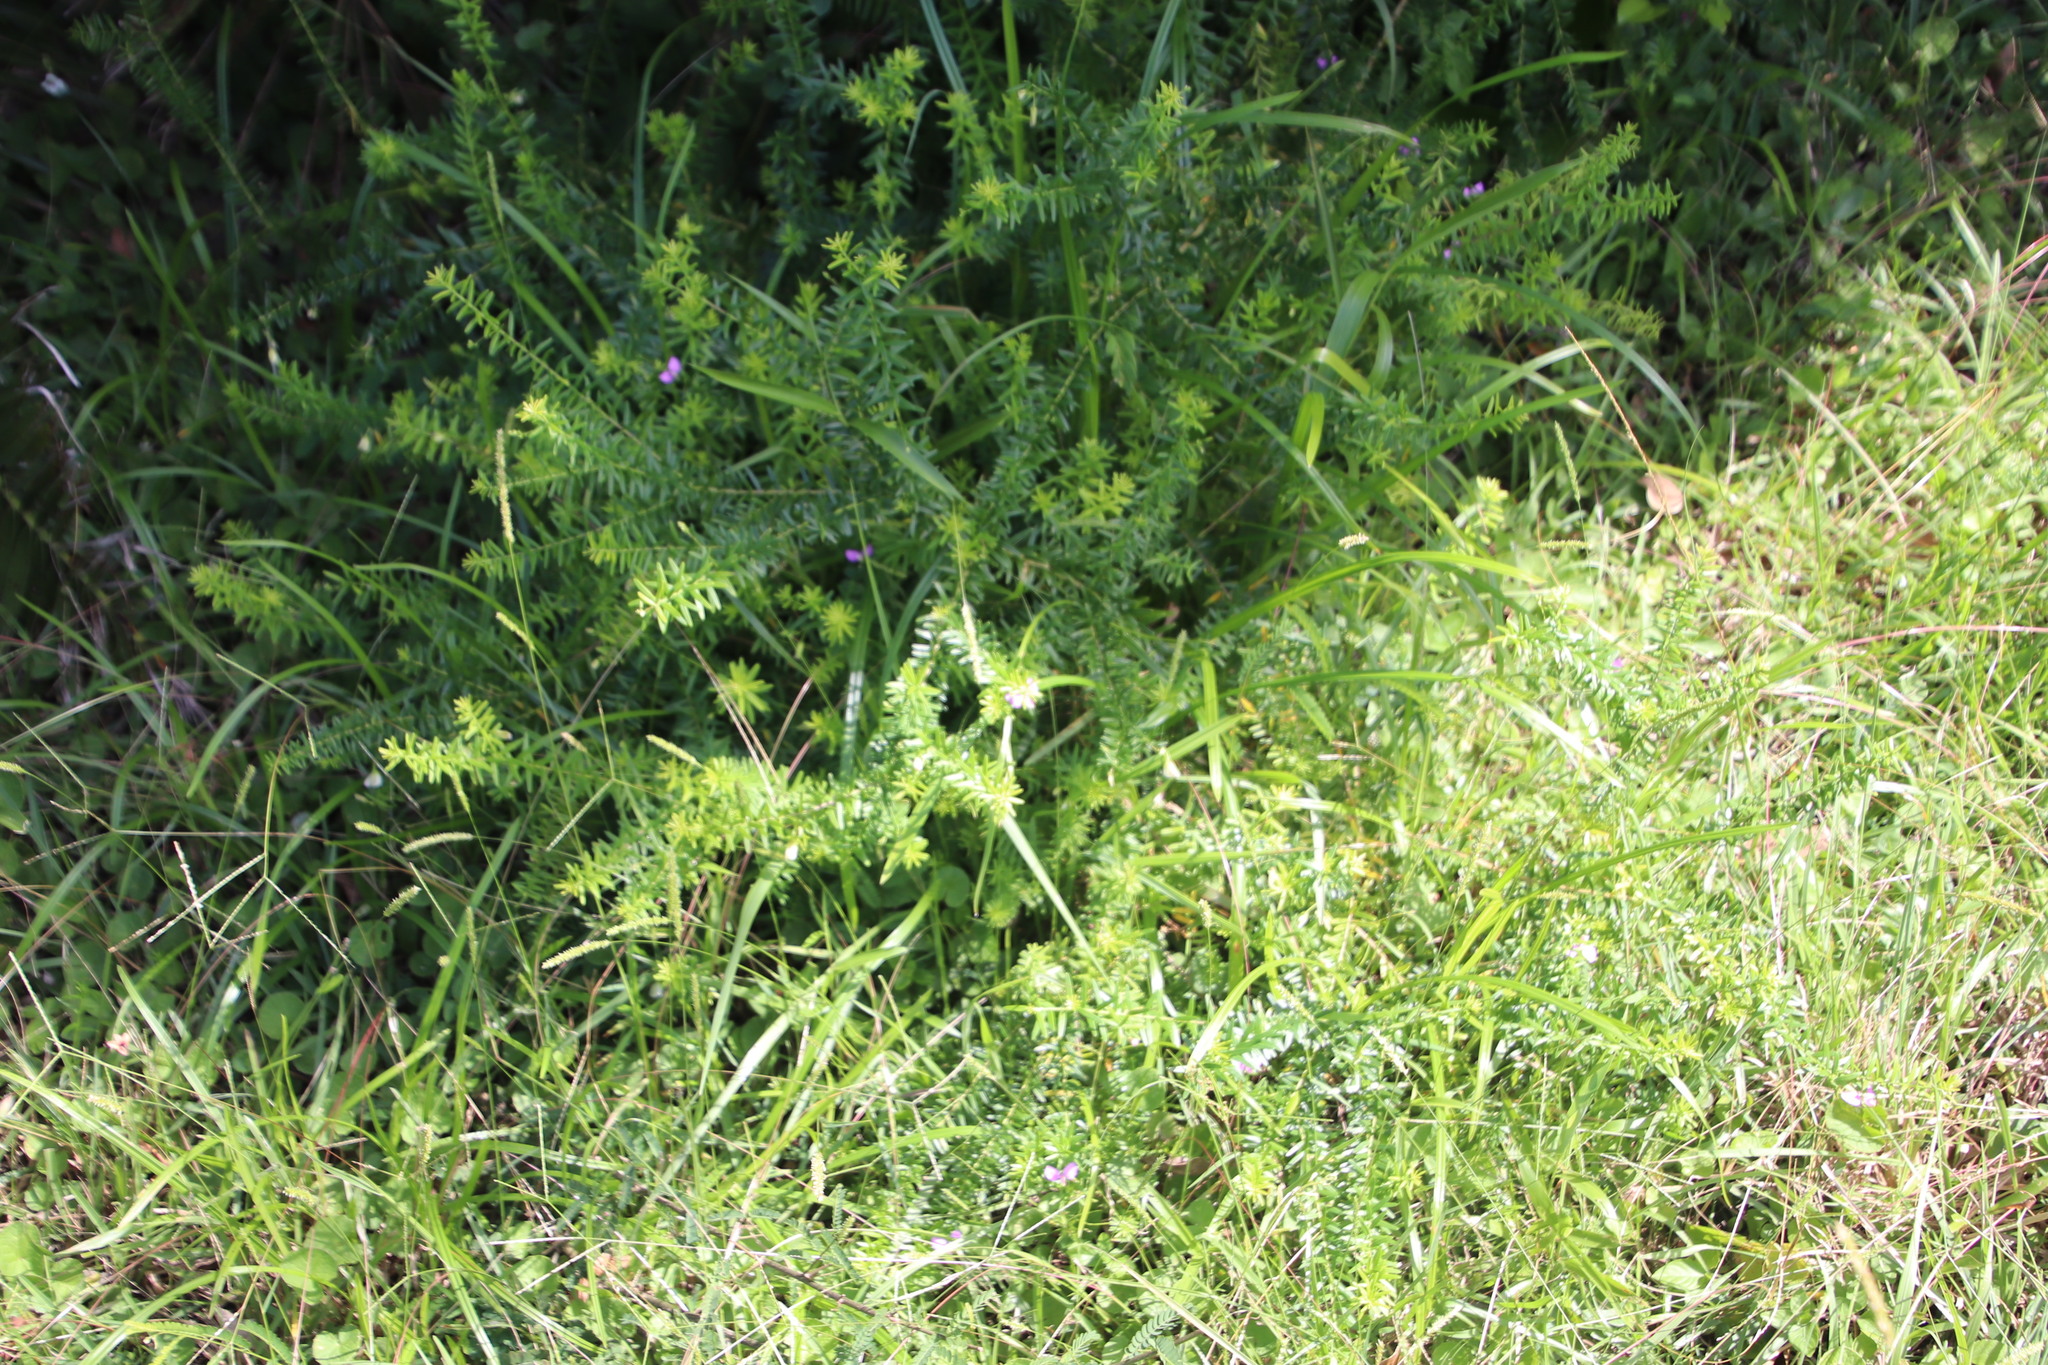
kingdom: Plantae
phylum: Tracheophyta
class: Magnoliopsida
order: Fabales
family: Polygalaceae
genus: Polygala
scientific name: Polygala gazensis
